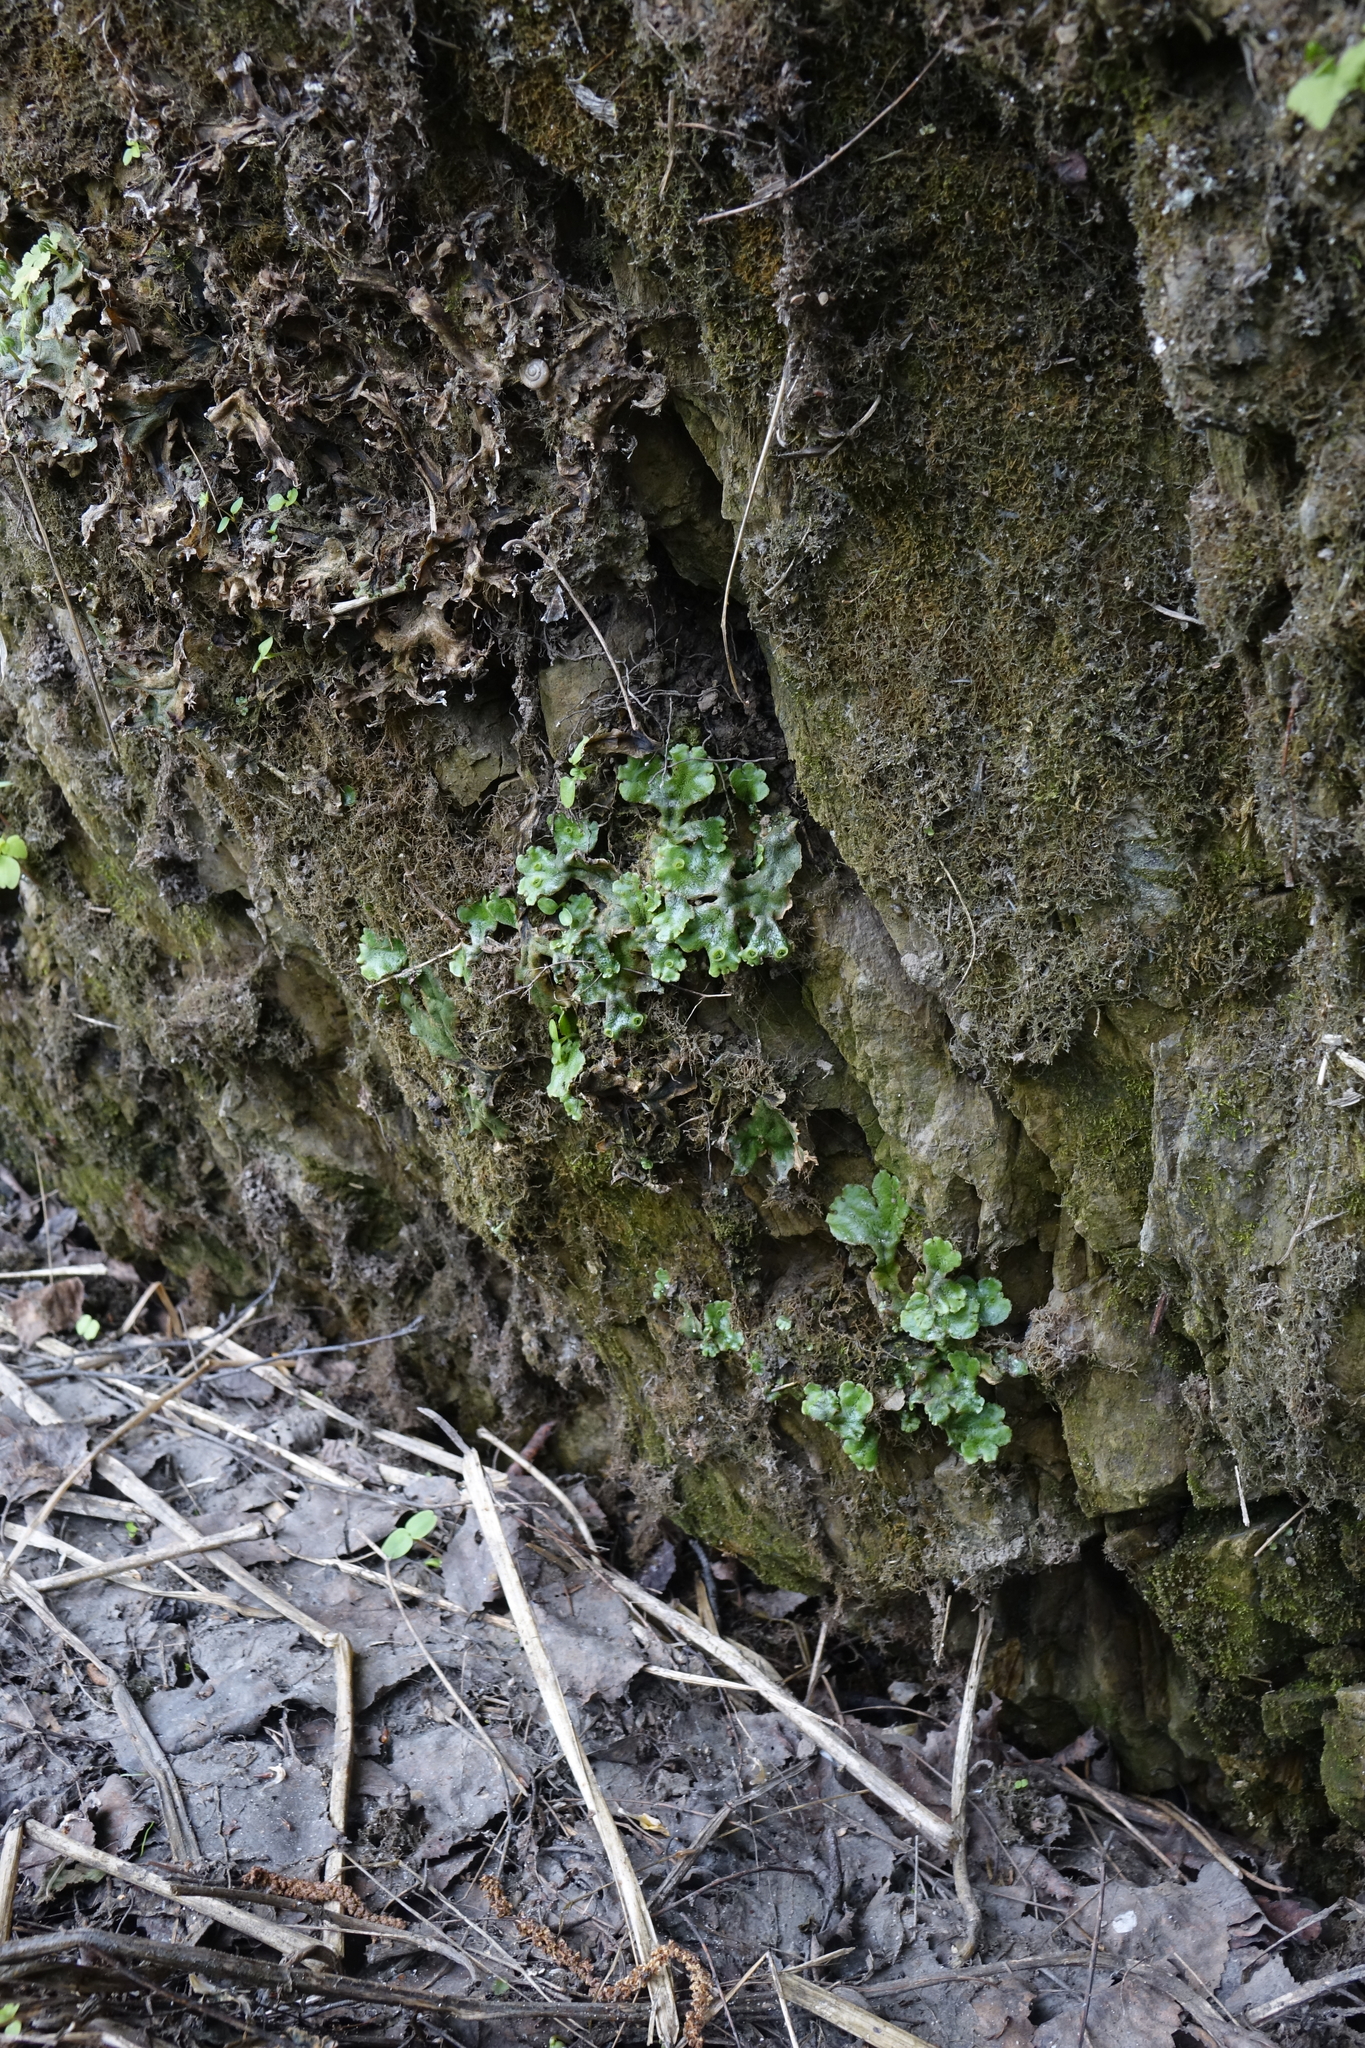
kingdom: Plantae
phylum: Marchantiophyta
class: Marchantiopsida
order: Marchantiales
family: Marchantiaceae
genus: Marchantia
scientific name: Marchantia polymorpha
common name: Common liverwort
